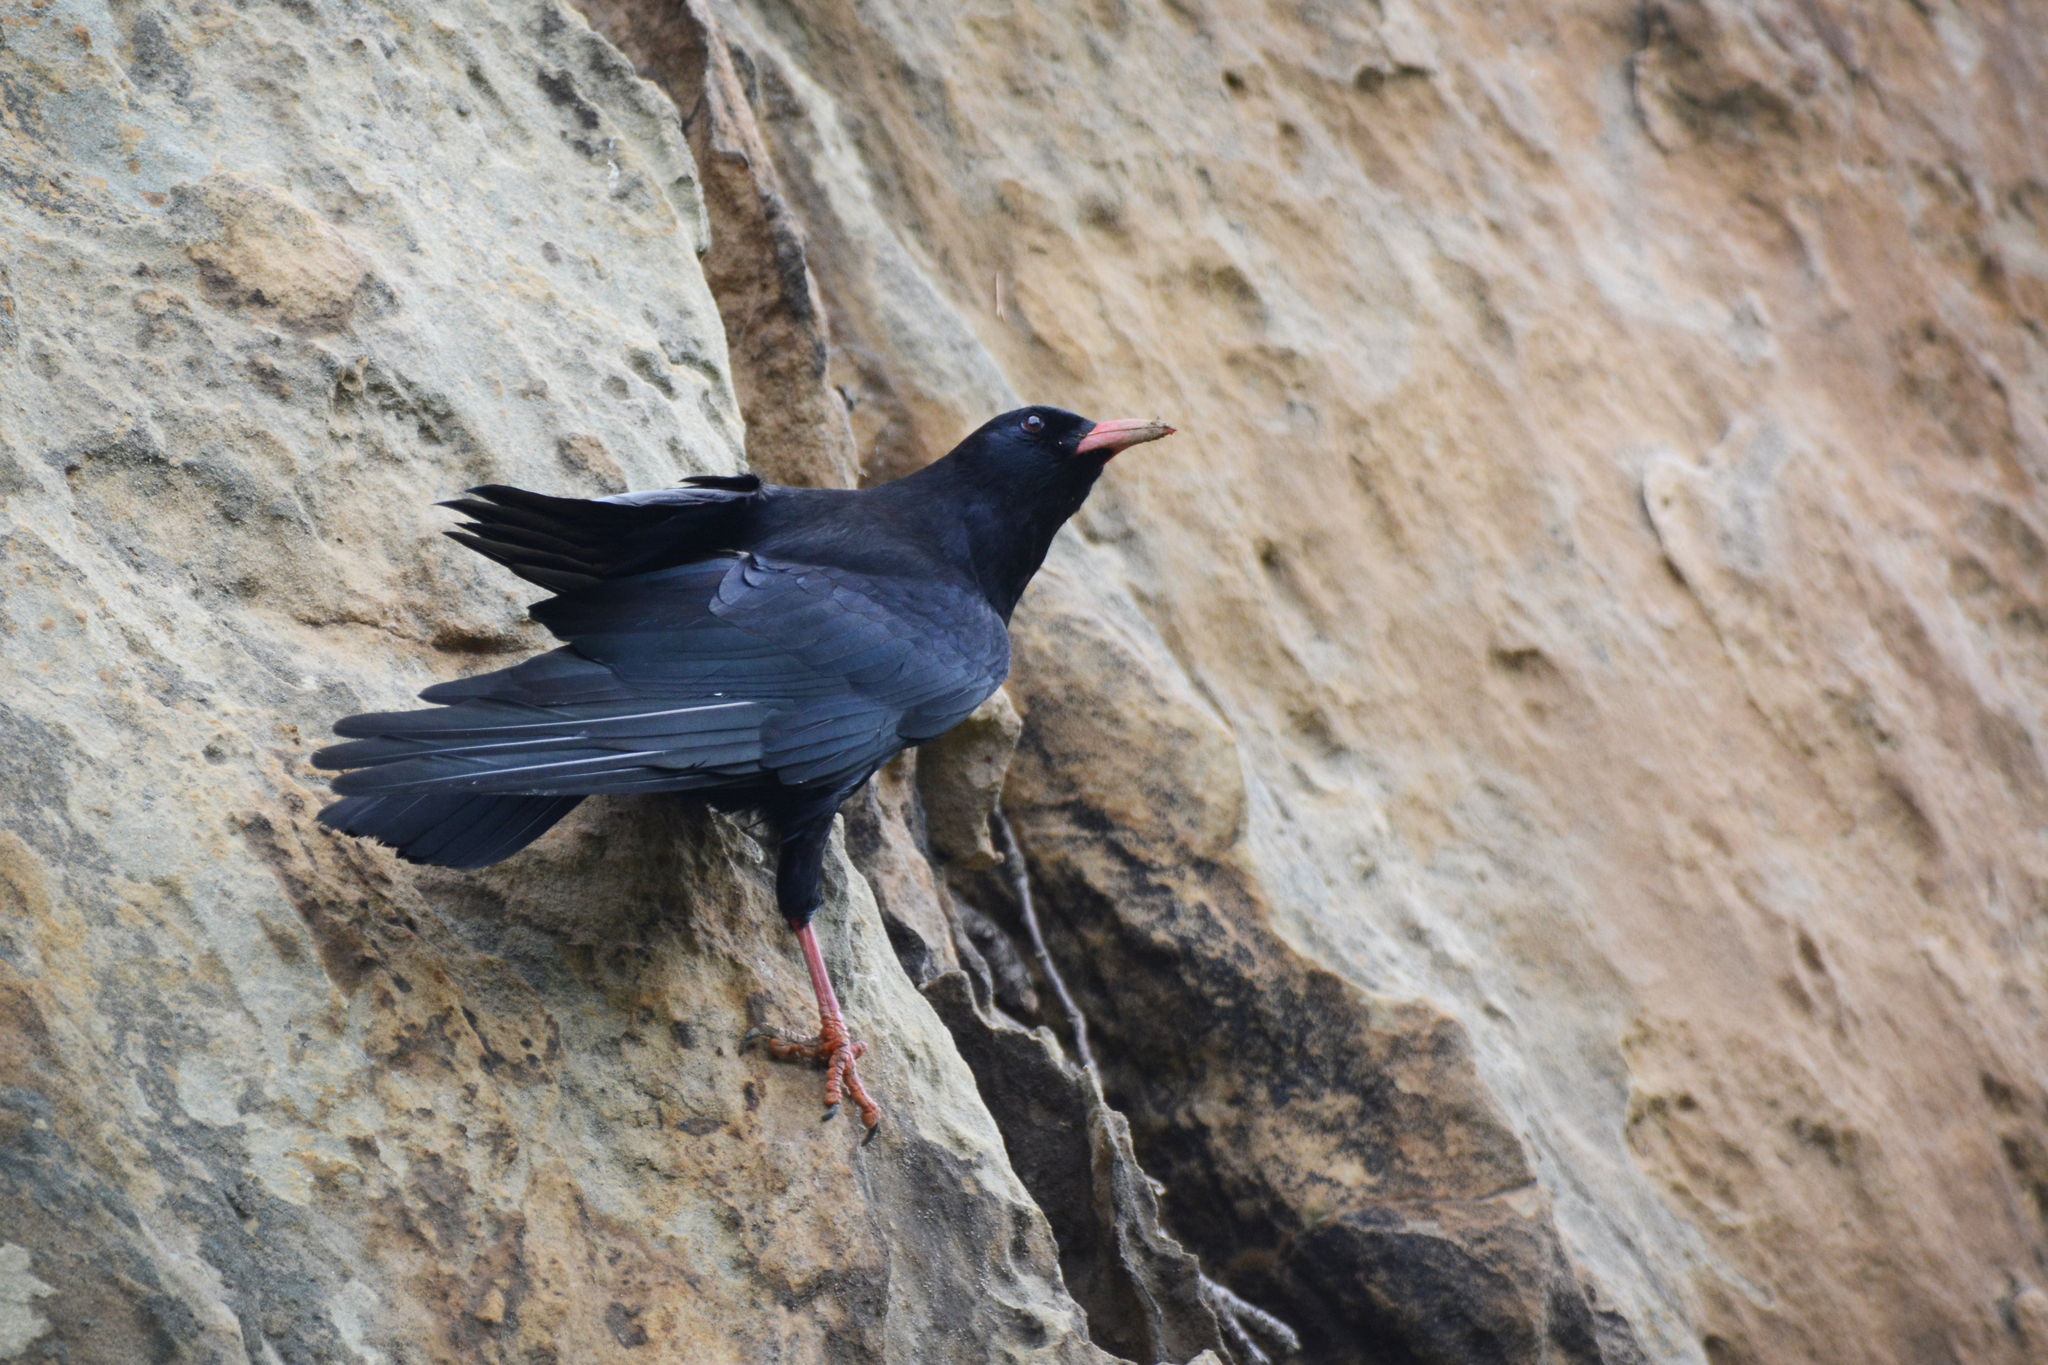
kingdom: Animalia
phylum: Chordata
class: Aves
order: Passeriformes
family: Corvidae
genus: Pyrrhocorax
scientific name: Pyrrhocorax pyrrhocorax
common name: Red-billed chough
